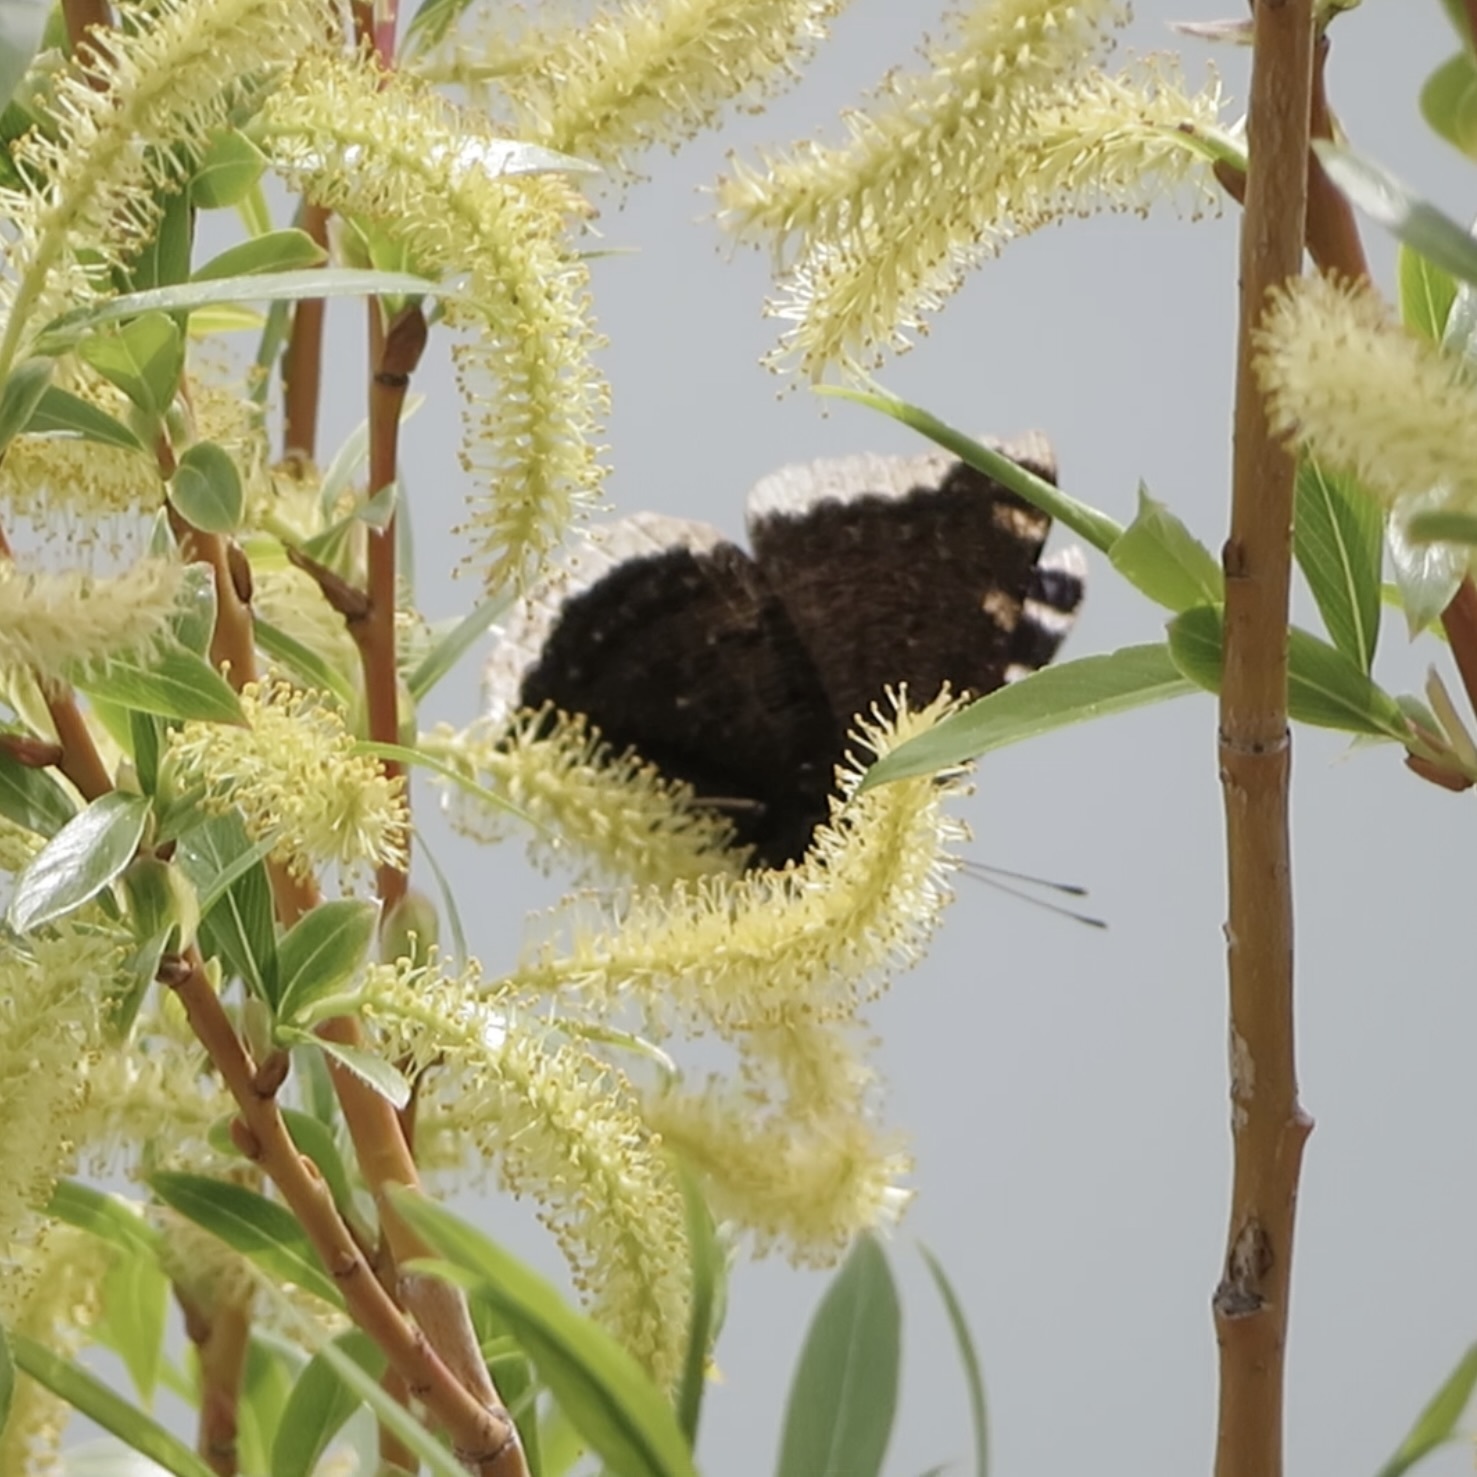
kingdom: Animalia
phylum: Arthropoda
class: Insecta
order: Lepidoptera
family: Nymphalidae
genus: Nymphalis
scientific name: Nymphalis antiopa
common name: Camberwell beauty
